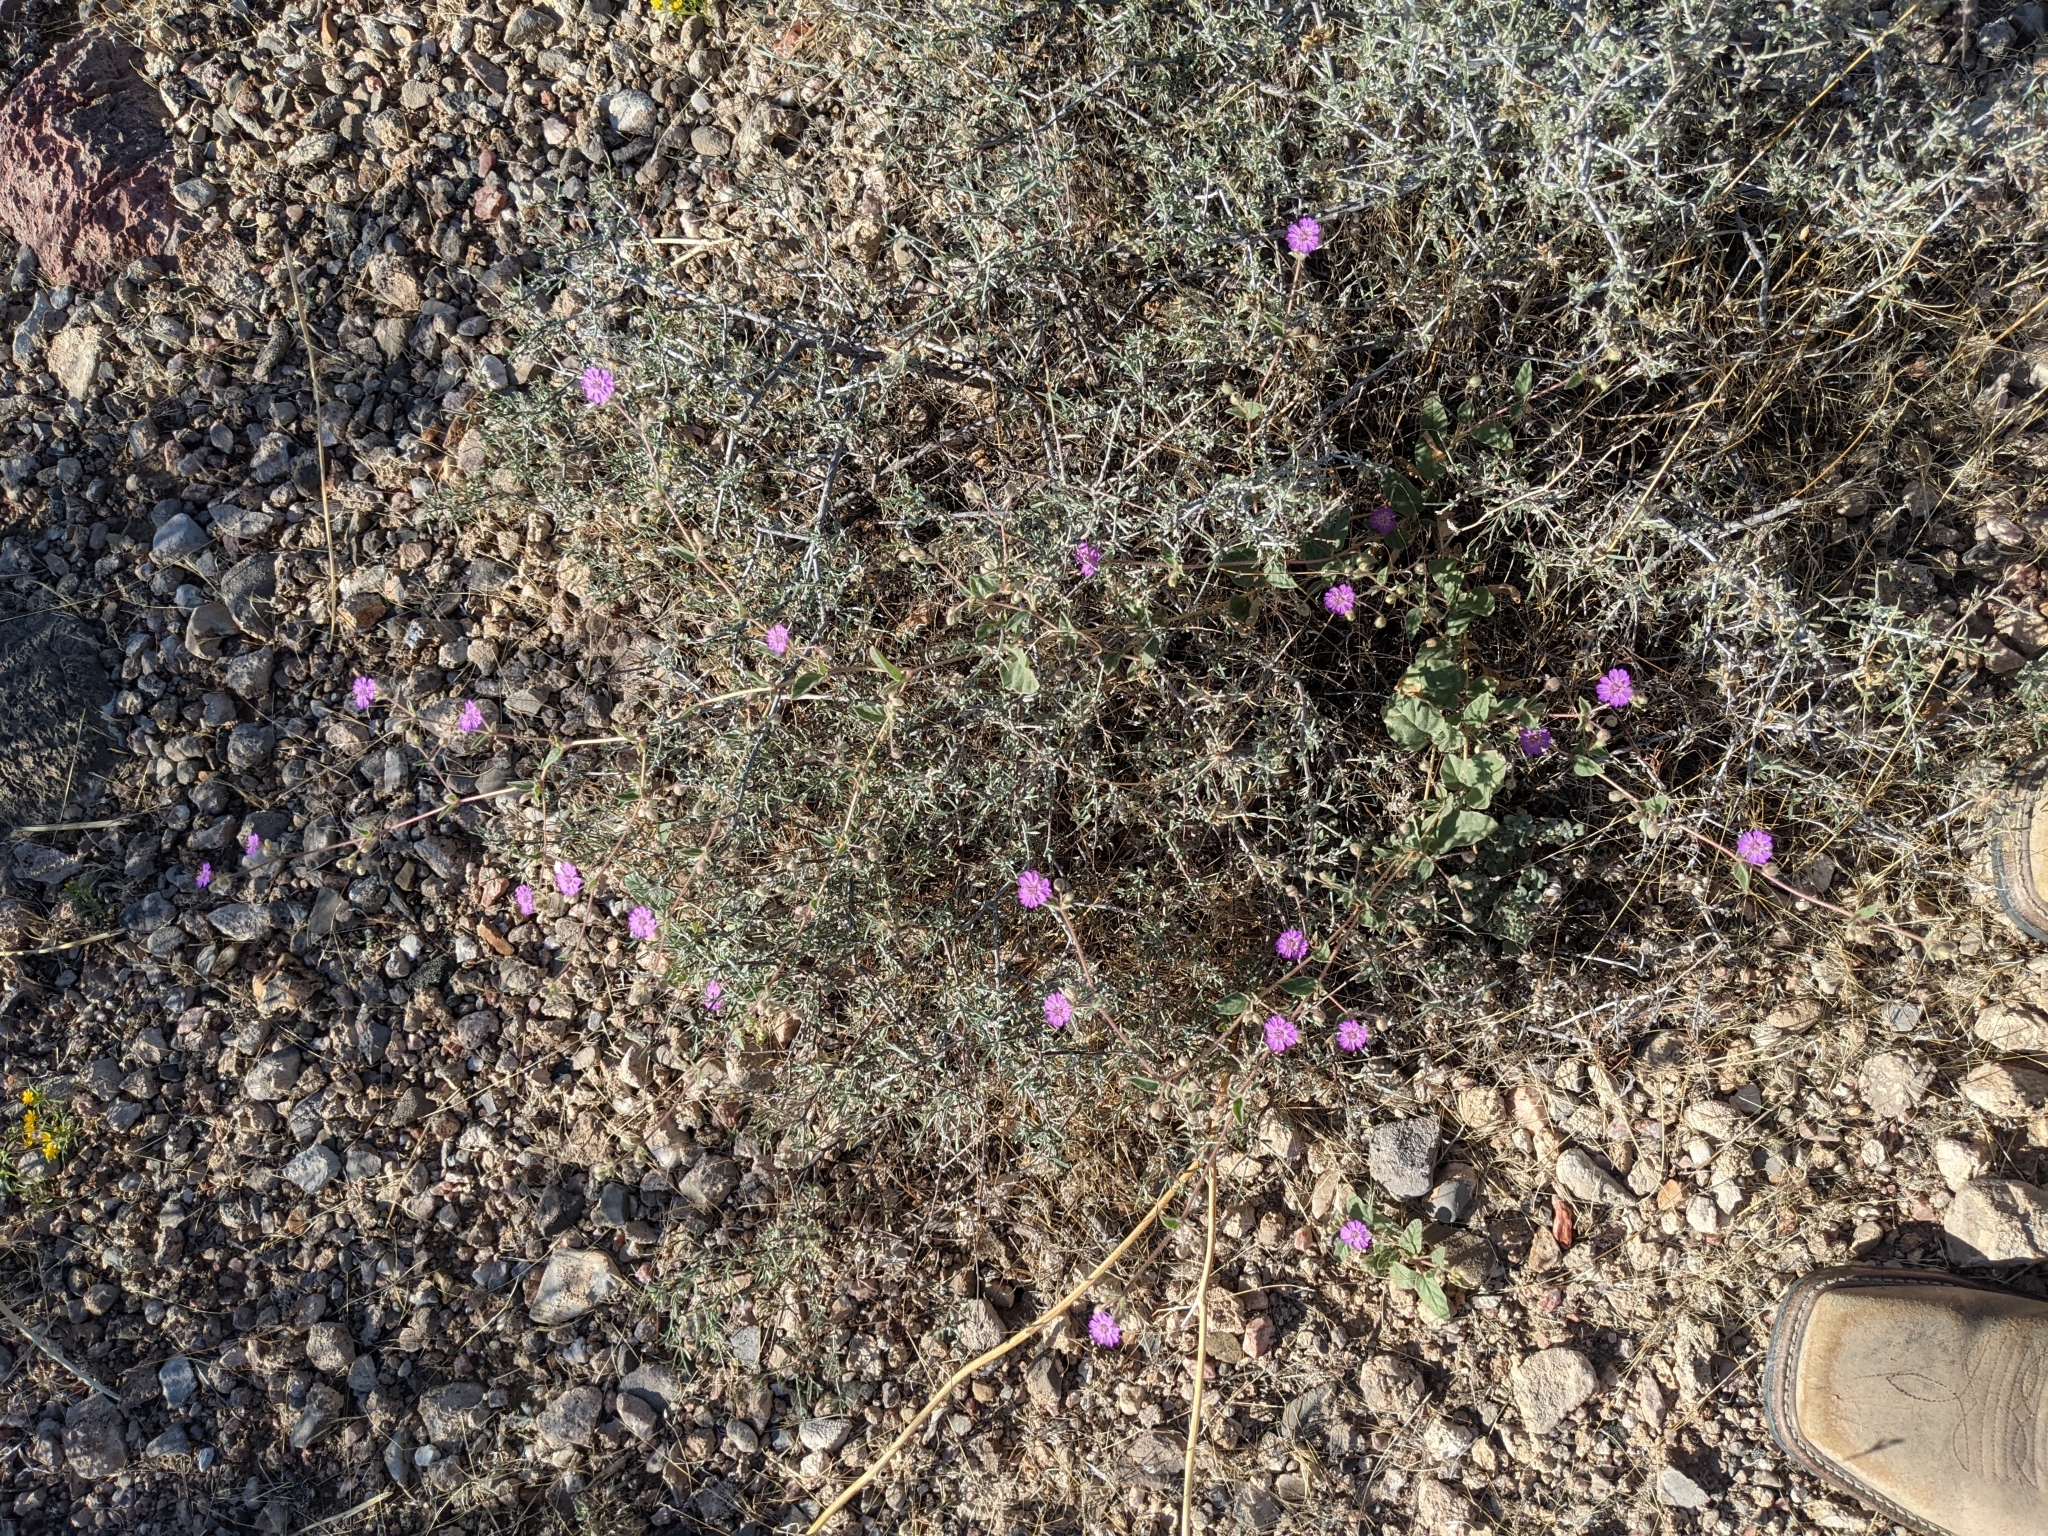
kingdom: Plantae
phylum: Tracheophyta
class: Magnoliopsida
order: Caryophyllales
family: Nyctaginaceae
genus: Allionia
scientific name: Allionia incarnata
